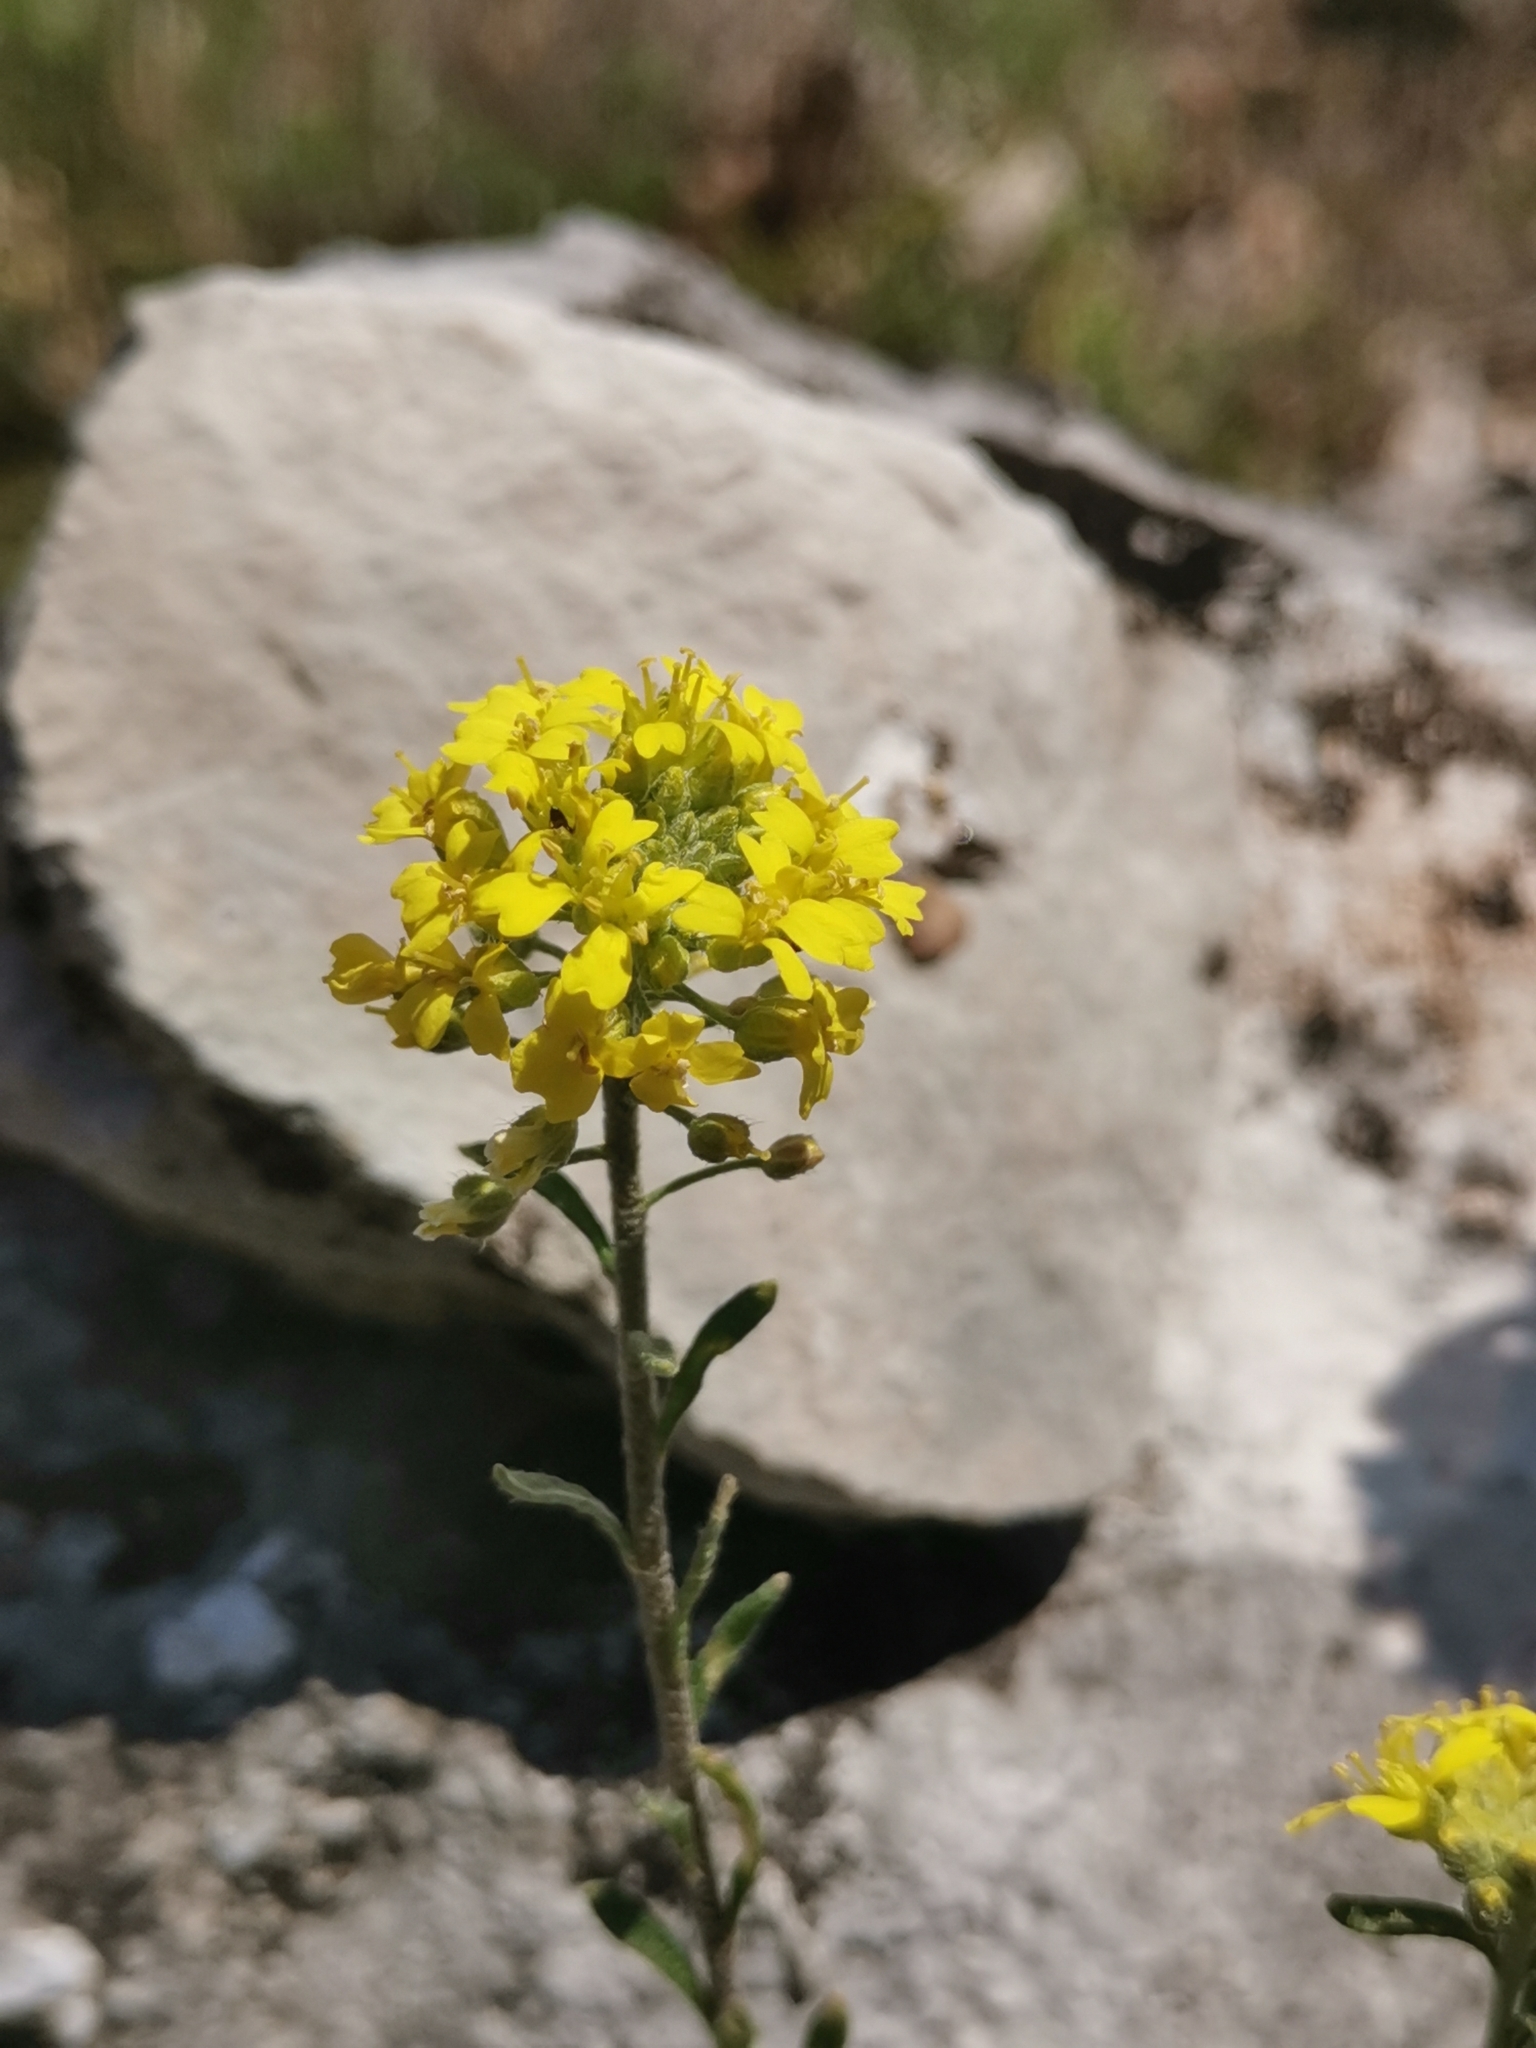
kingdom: Plantae
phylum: Tracheophyta
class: Magnoliopsida
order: Brassicales
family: Brassicaceae
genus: Alyssum
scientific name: Alyssum austrodalmaticum
